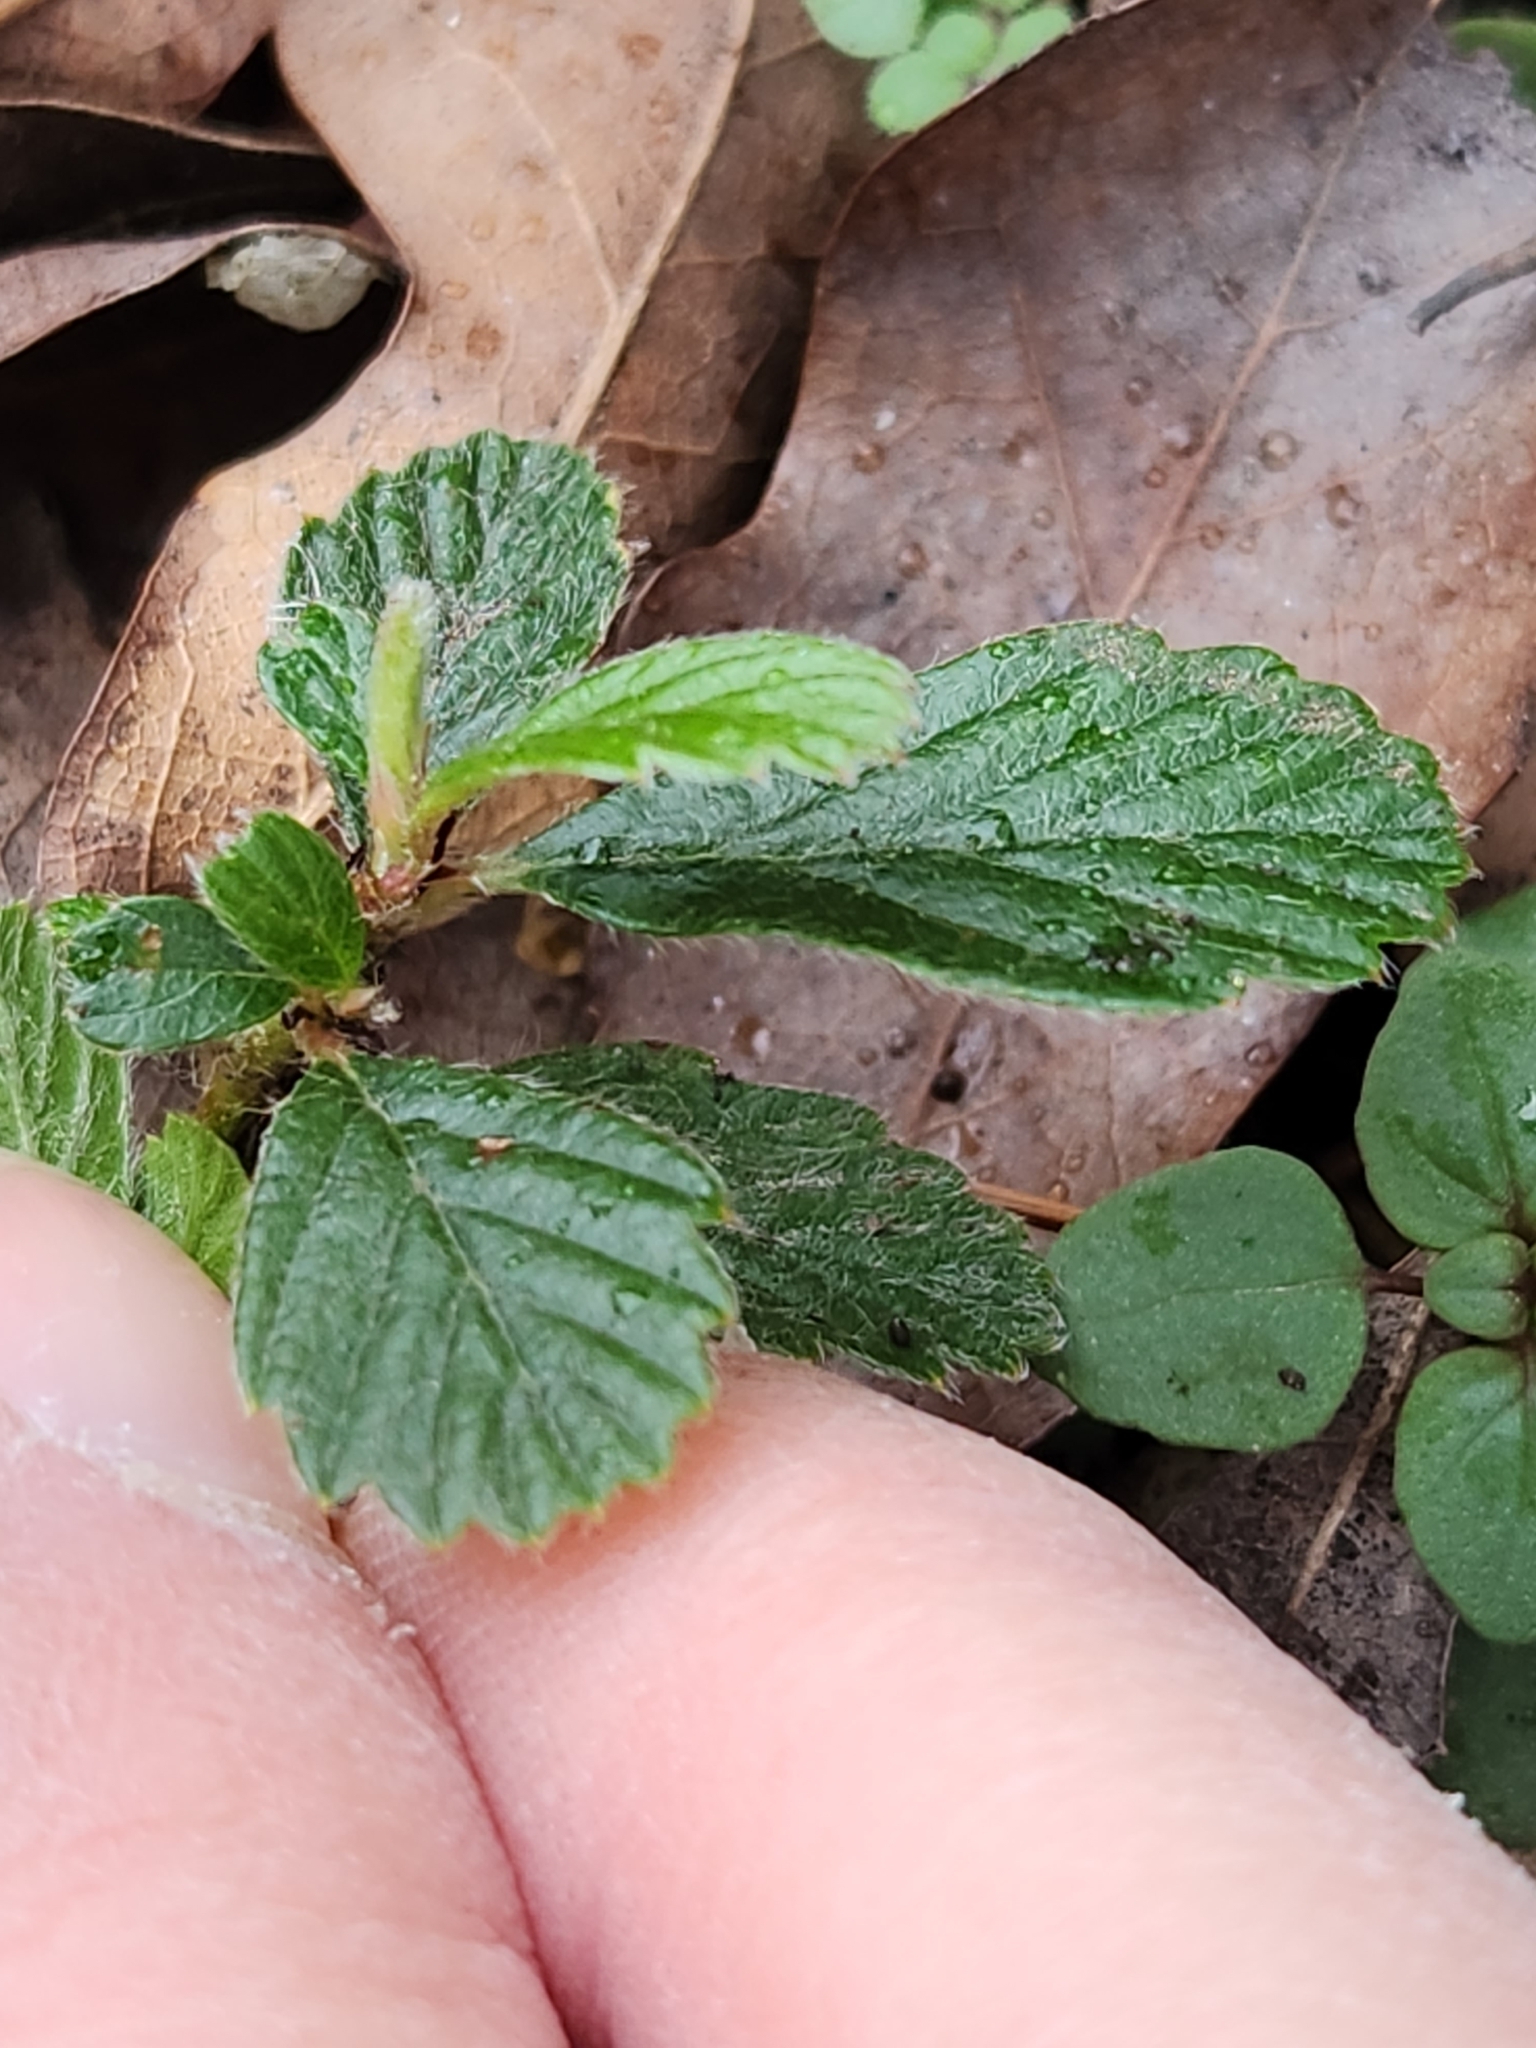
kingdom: Plantae
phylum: Tracheophyta
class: Magnoliopsida
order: Rosales
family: Rosaceae
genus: Cercocarpus
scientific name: Cercocarpus montanus
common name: Alder-leaf cercocarpus
